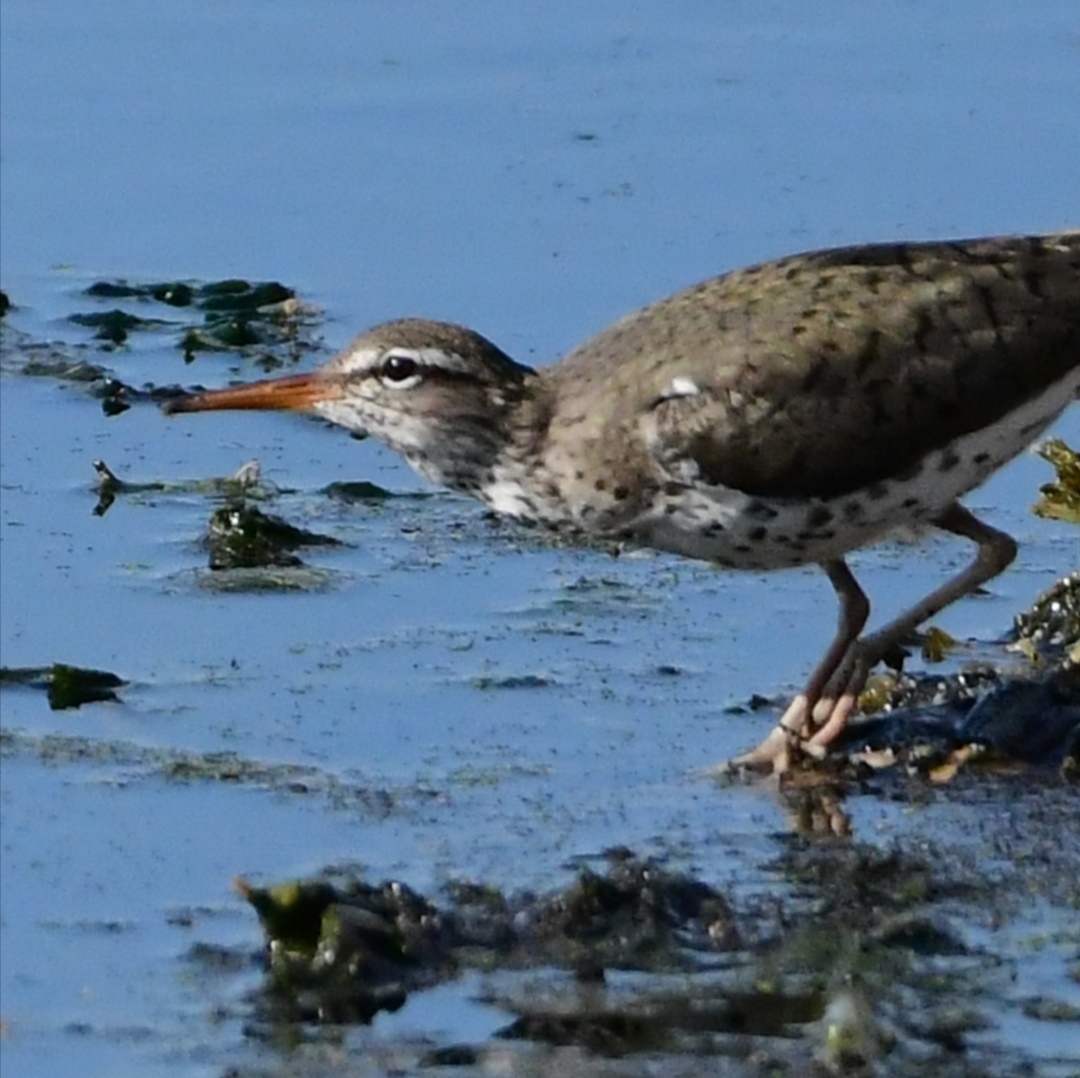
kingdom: Animalia
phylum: Chordata
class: Aves
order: Charadriiformes
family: Scolopacidae
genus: Actitis
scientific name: Actitis macularius
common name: Spotted sandpiper
